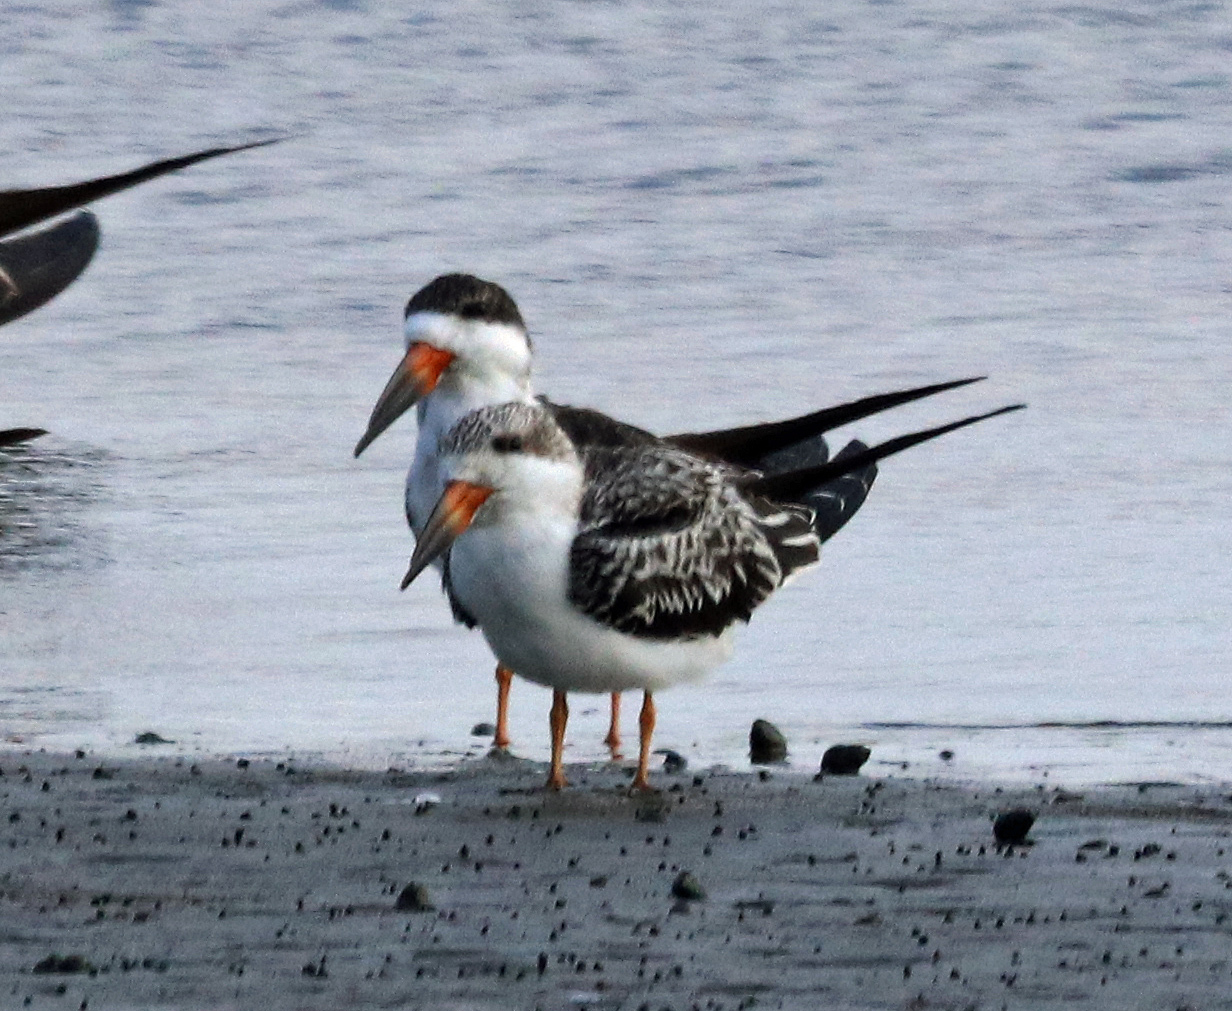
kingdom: Animalia
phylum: Chordata
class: Aves
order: Charadriiformes
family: Laridae
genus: Rynchops
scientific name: Rynchops niger
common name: Black skimmer
